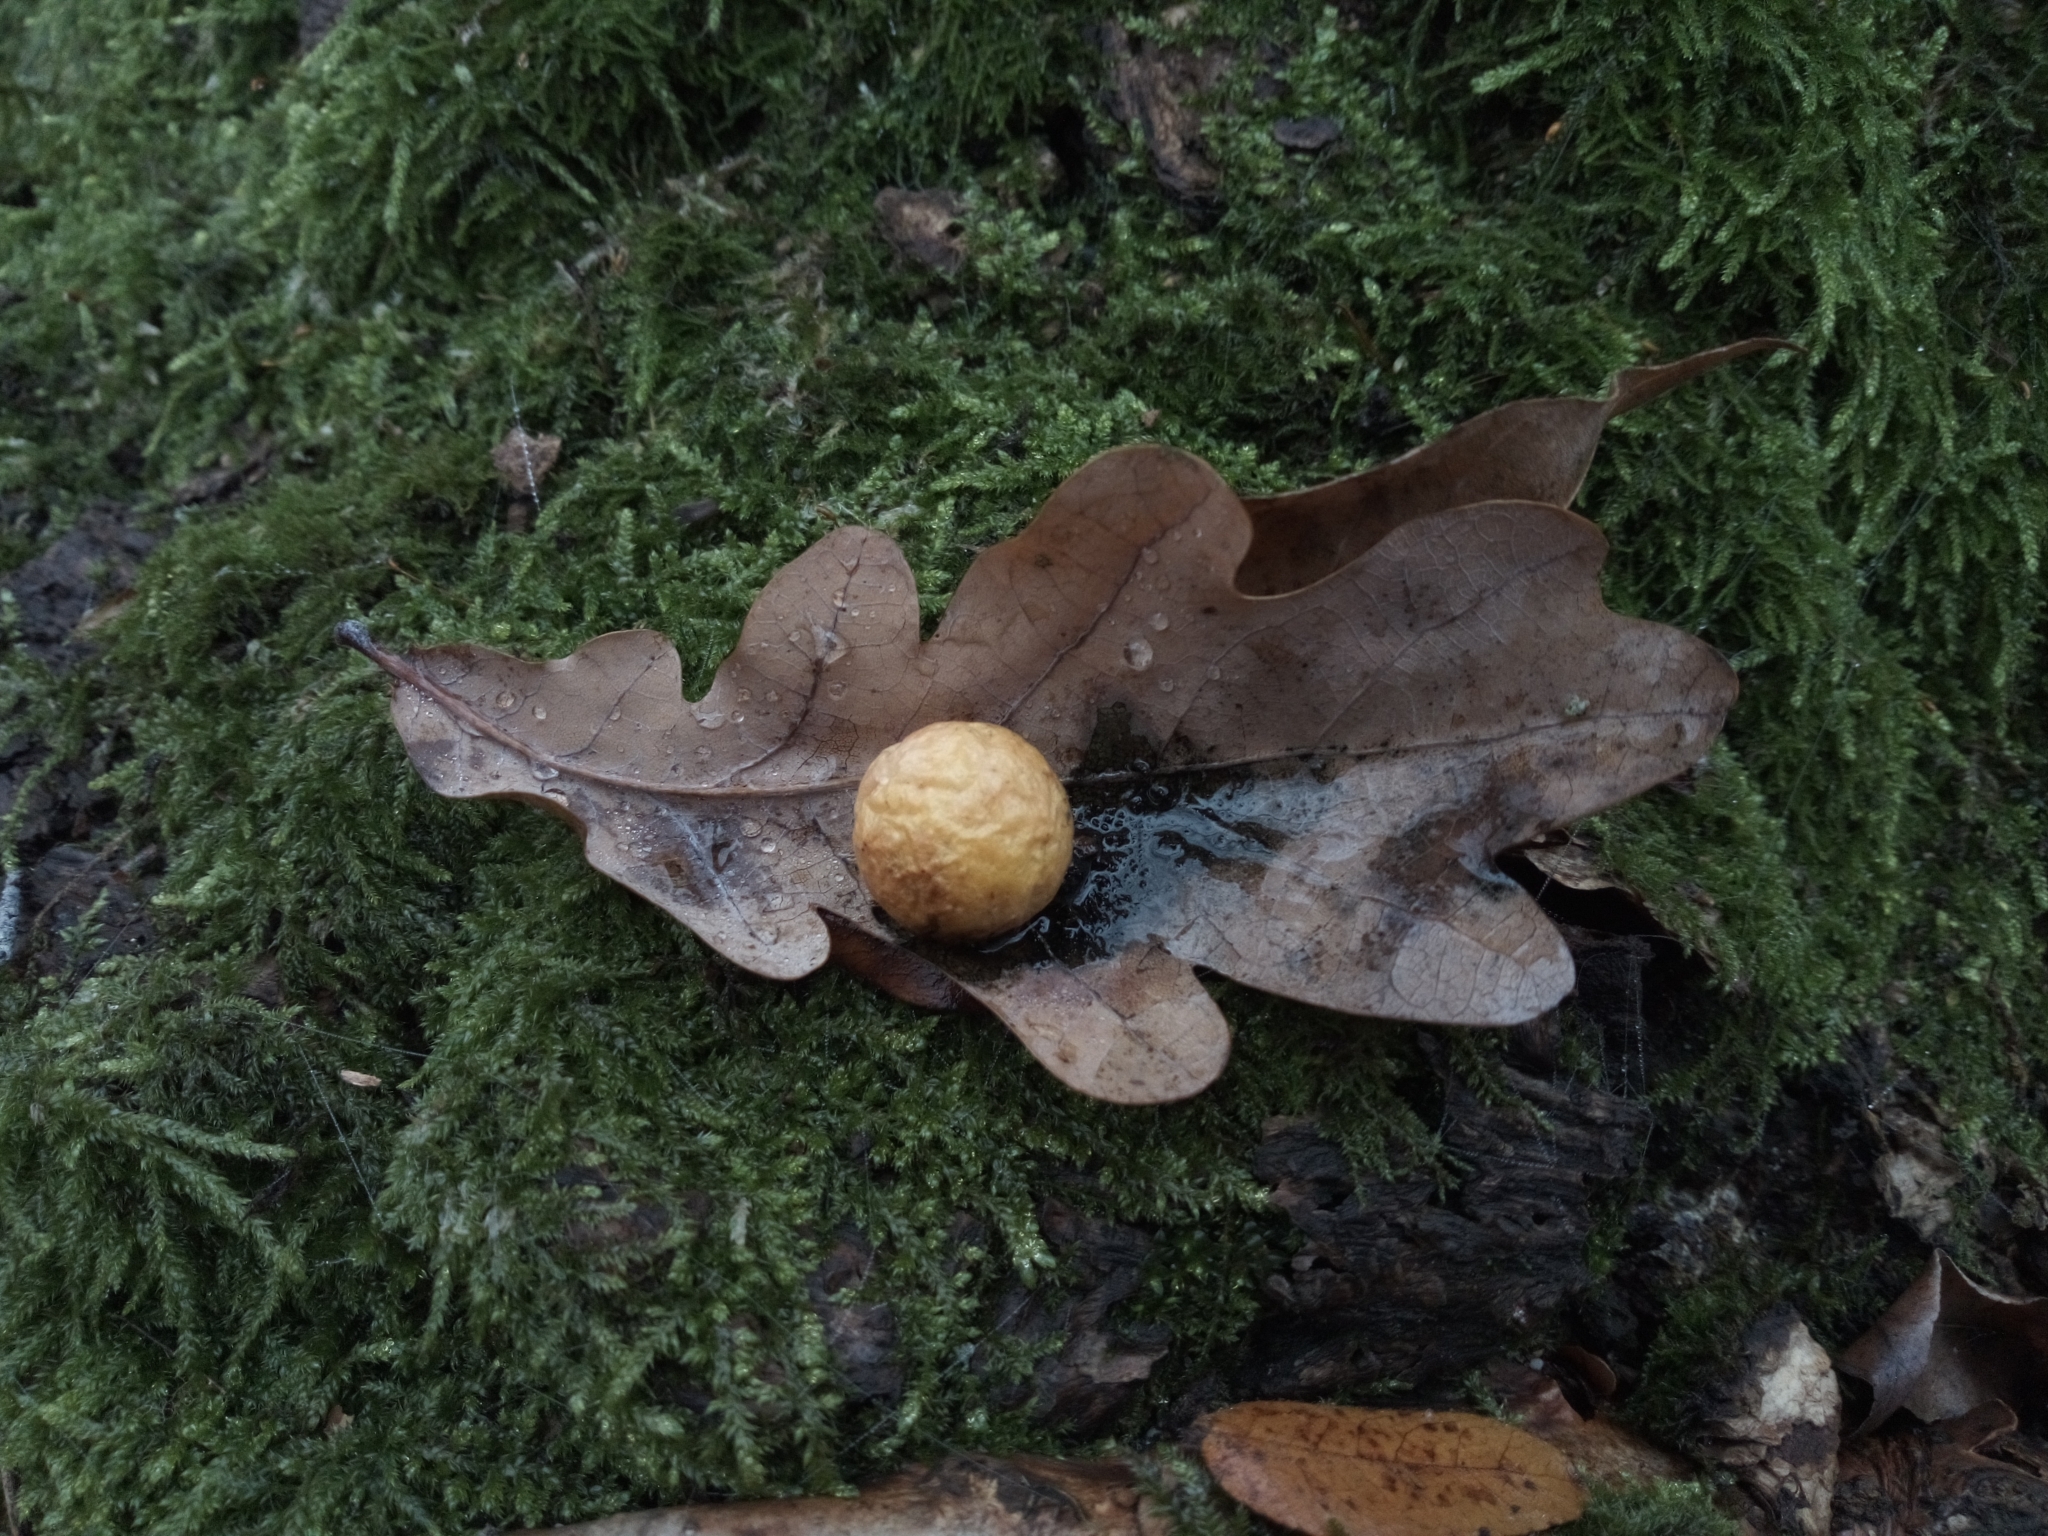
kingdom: Animalia
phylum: Arthropoda
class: Insecta
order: Hymenoptera
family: Cynipidae
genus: Cynips
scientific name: Cynips quercusfolii
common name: Cherry gall
